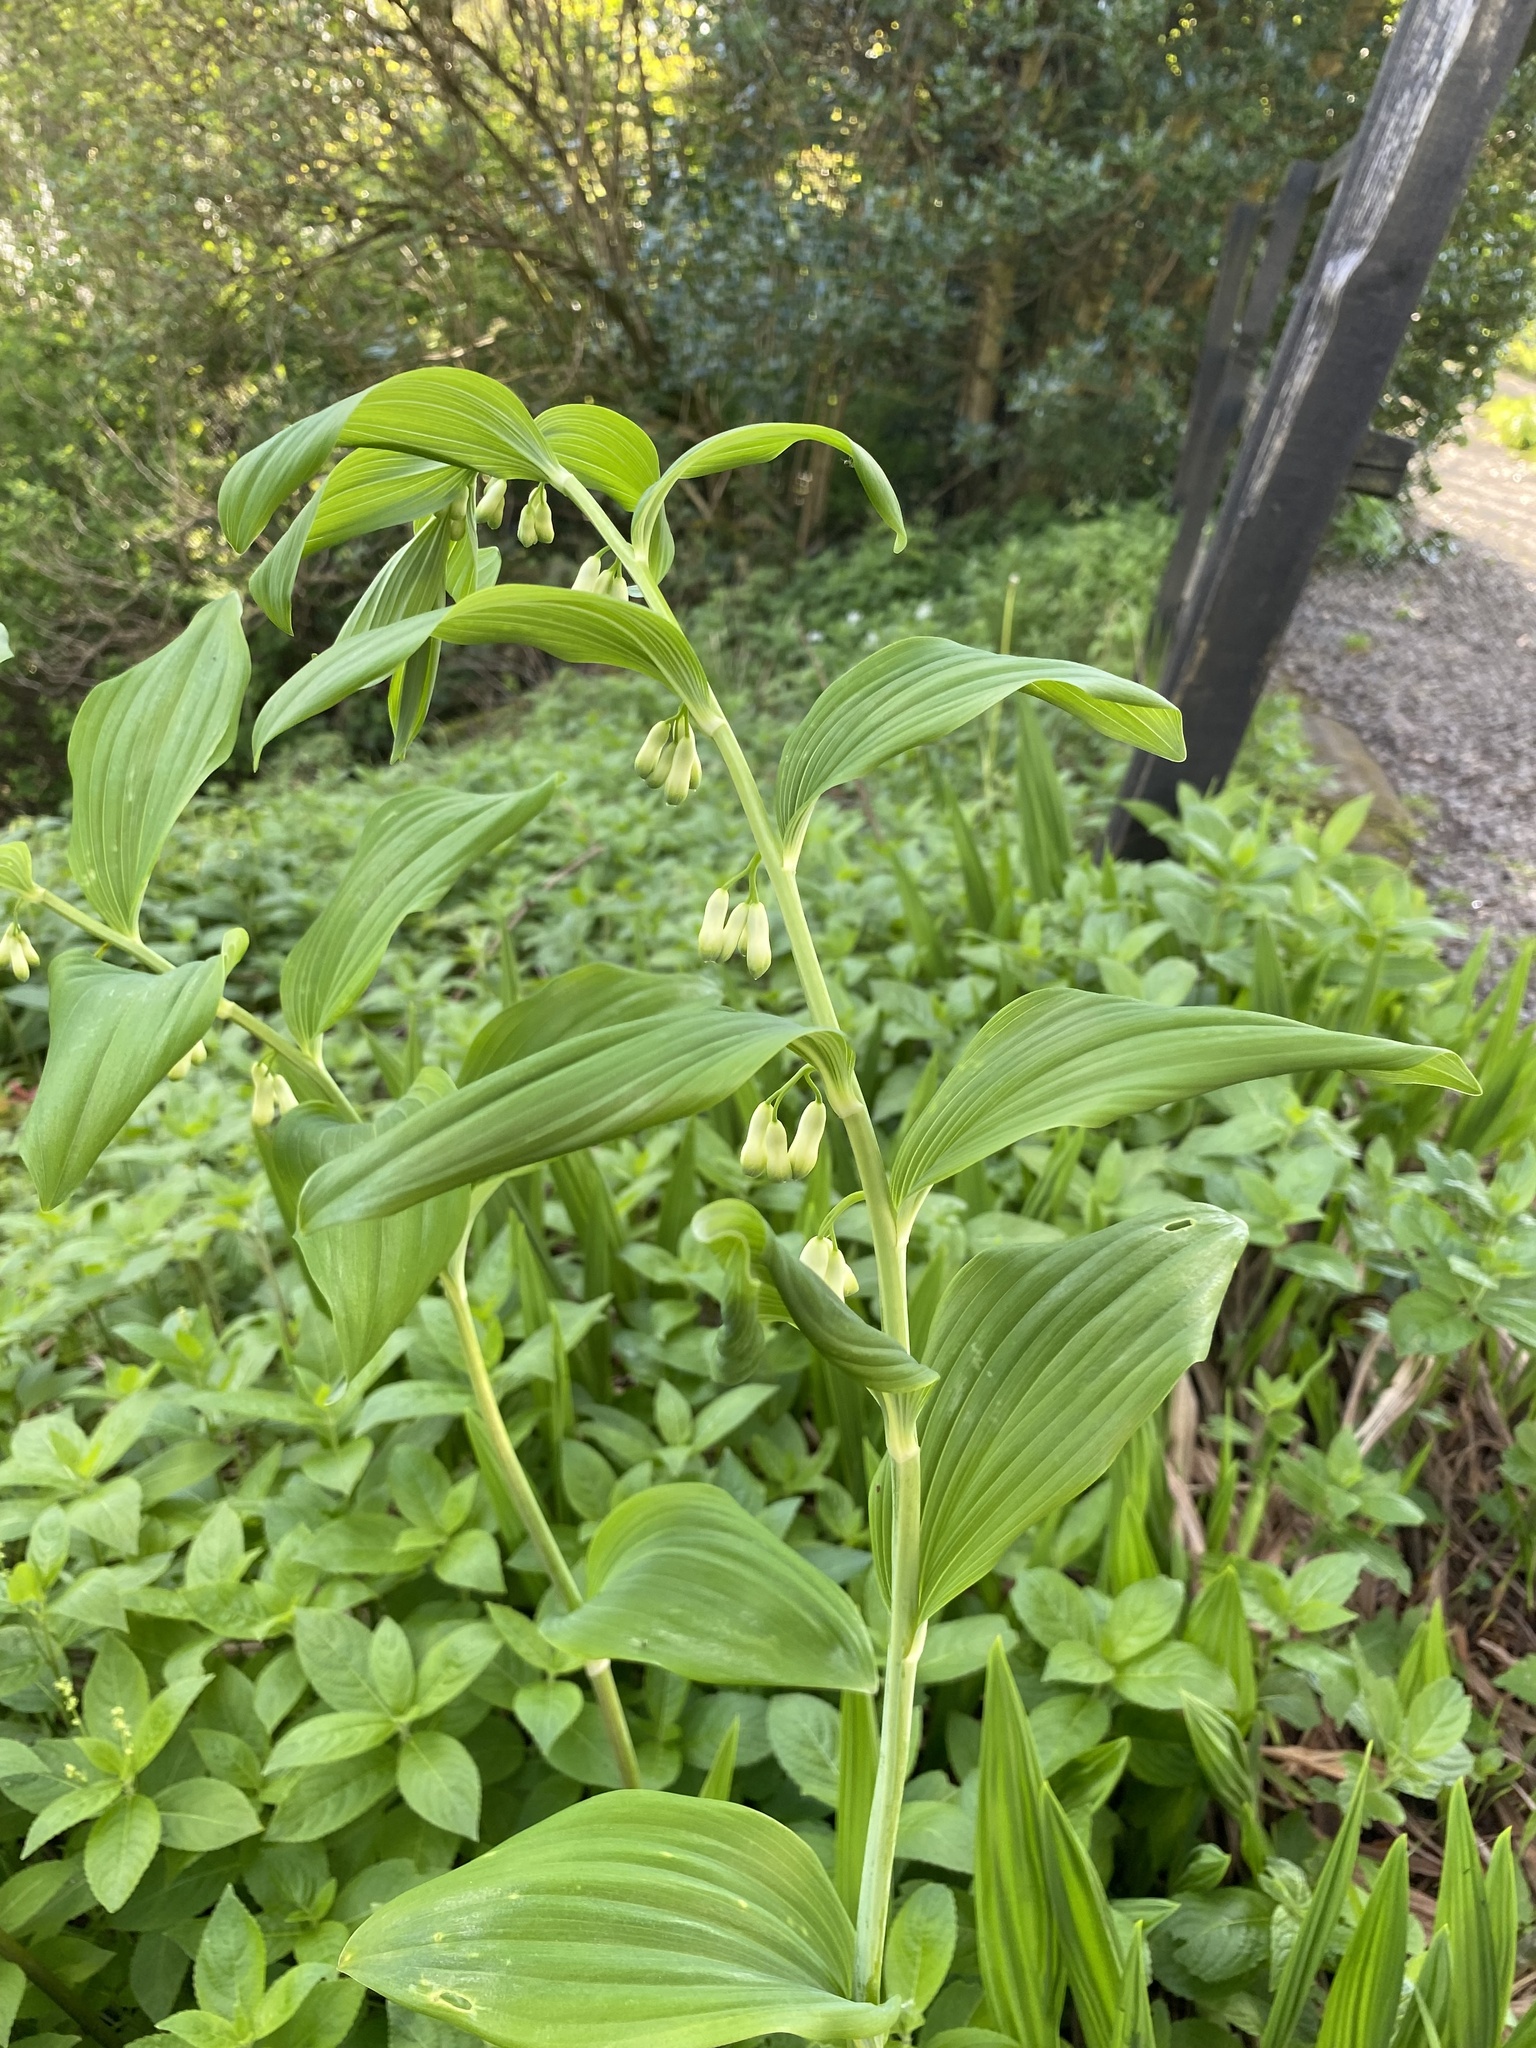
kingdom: Plantae
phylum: Tracheophyta
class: Liliopsida
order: Asparagales
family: Asparagaceae
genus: Polygonatum
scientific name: Polygonatum multiflorum
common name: Solomon's-seal
